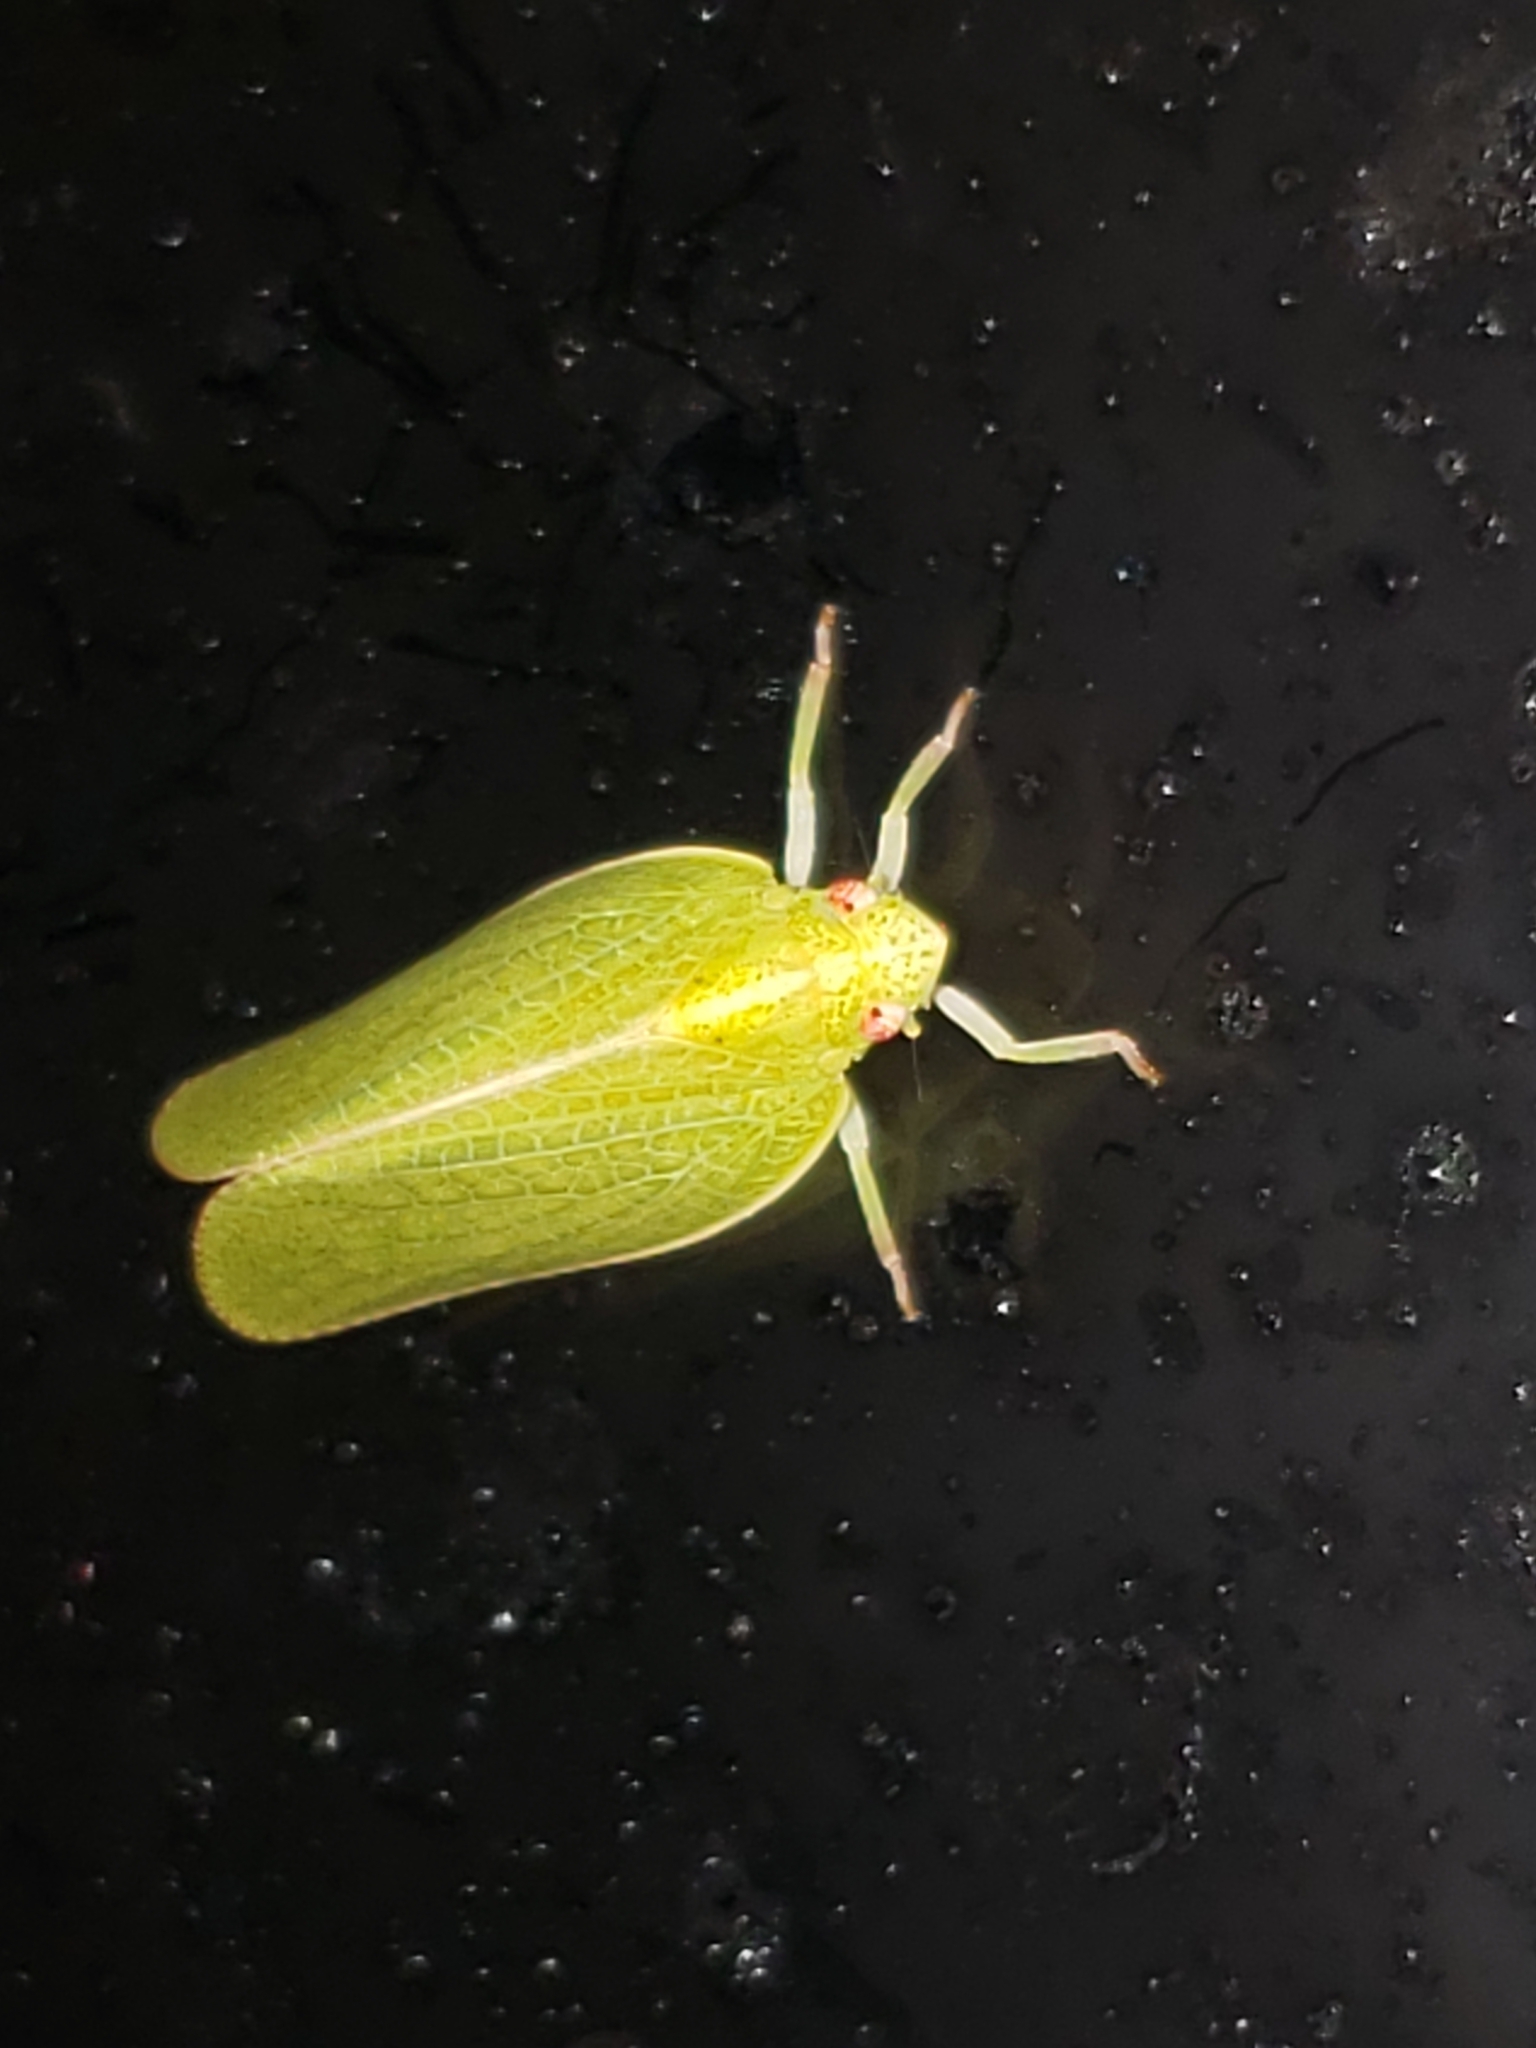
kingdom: Animalia
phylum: Arthropoda
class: Insecta
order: Hemiptera
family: Acanaloniidae
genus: Acanalonia
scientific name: Acanalonia conica
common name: Green cone-headed planthopper
